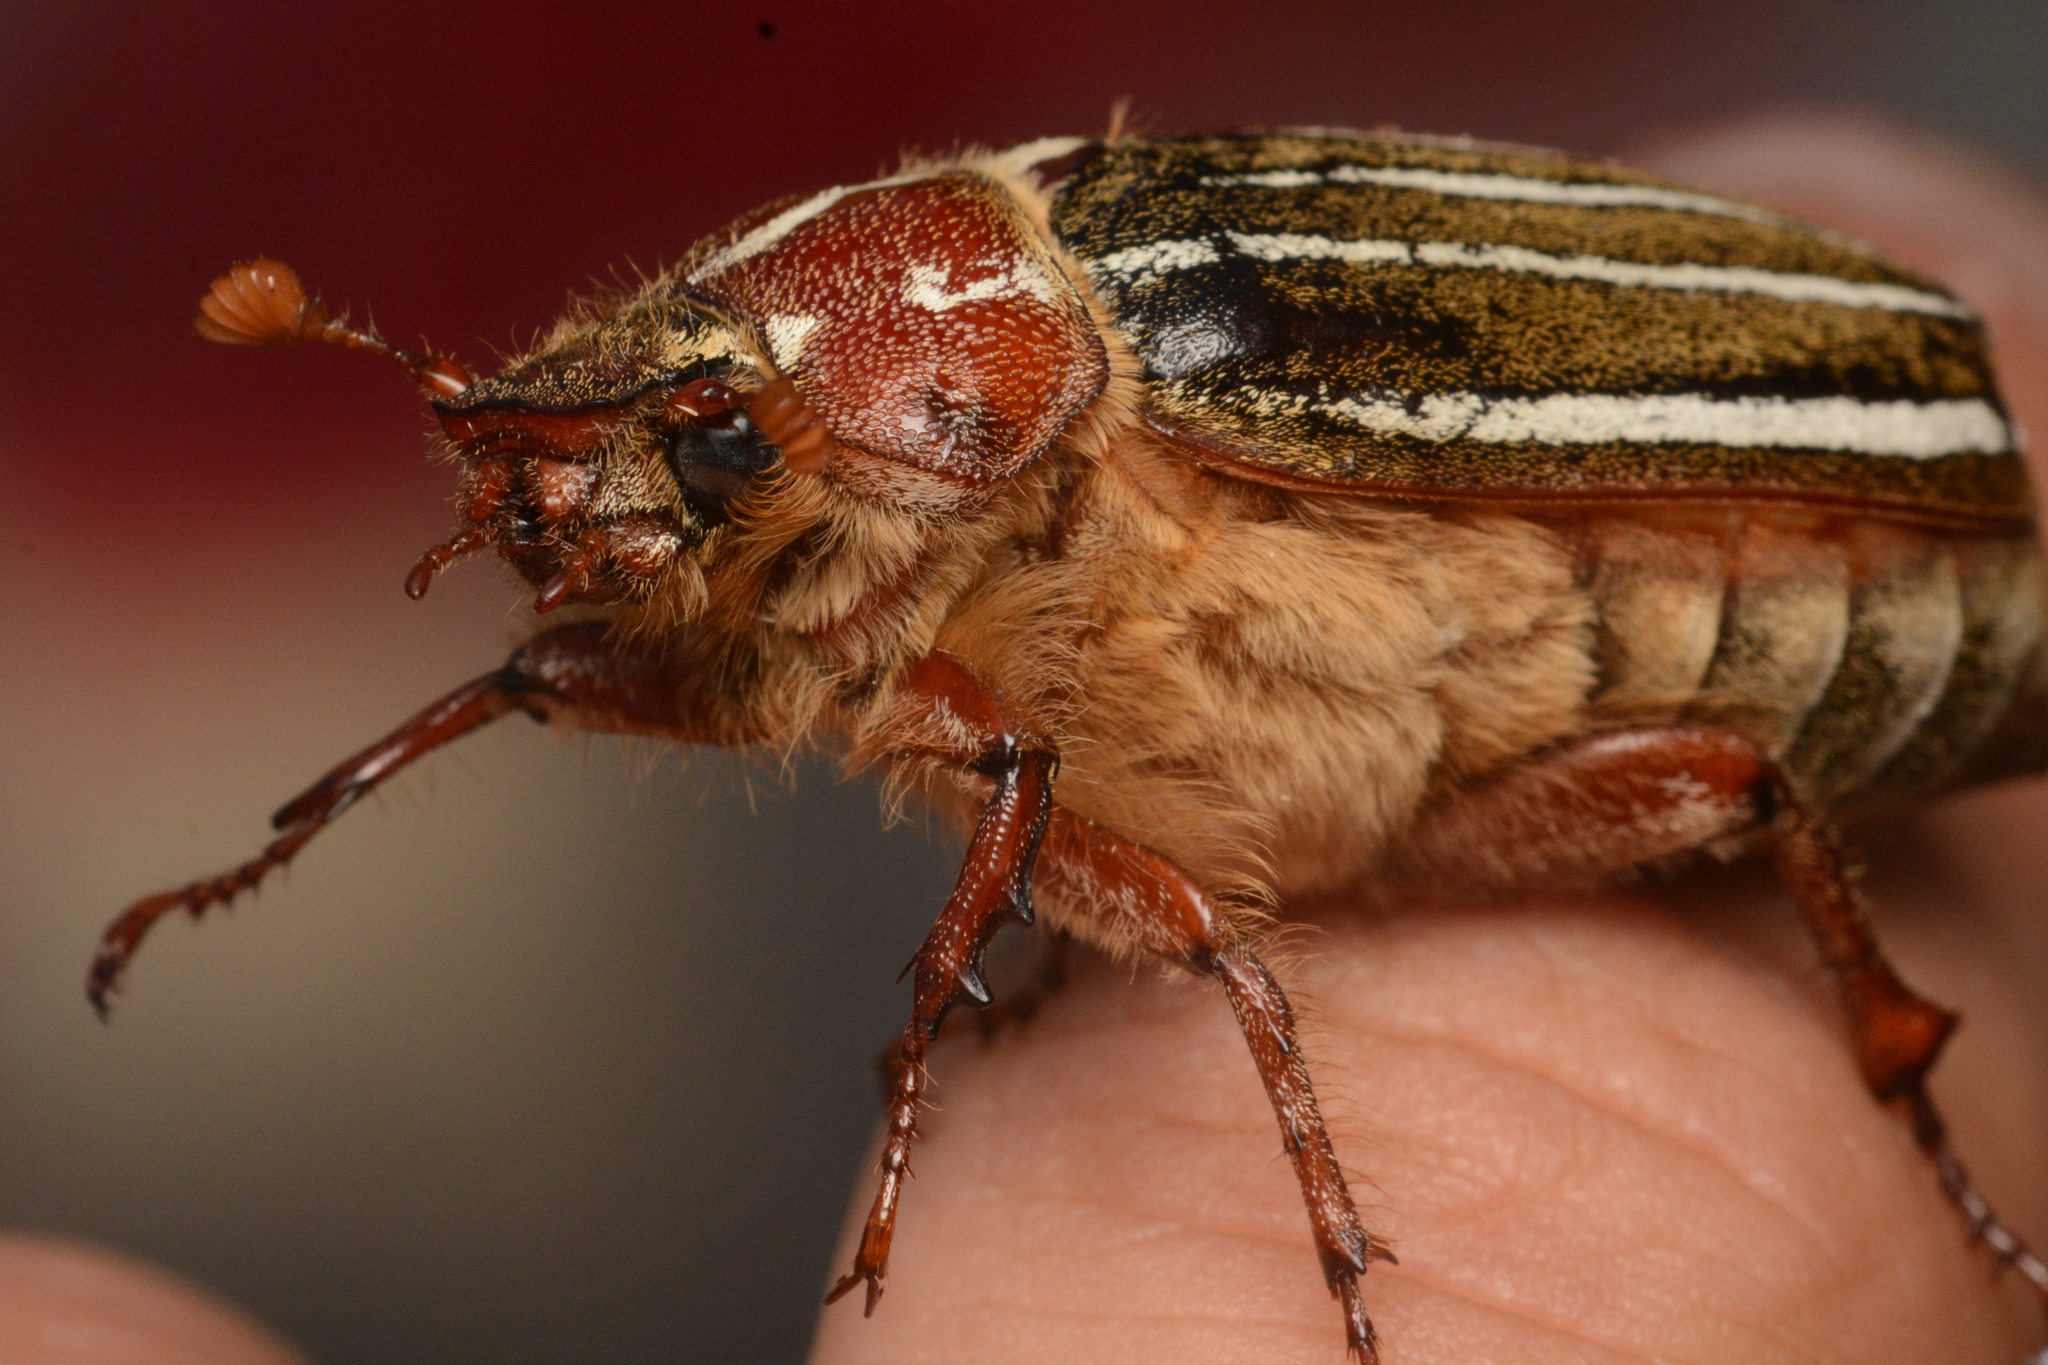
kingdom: Animalia
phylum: Arthropoda
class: Insecta
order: Coleoptera
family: Scarabaeidae
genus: Polyphylla
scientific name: Polyphylla crinita
